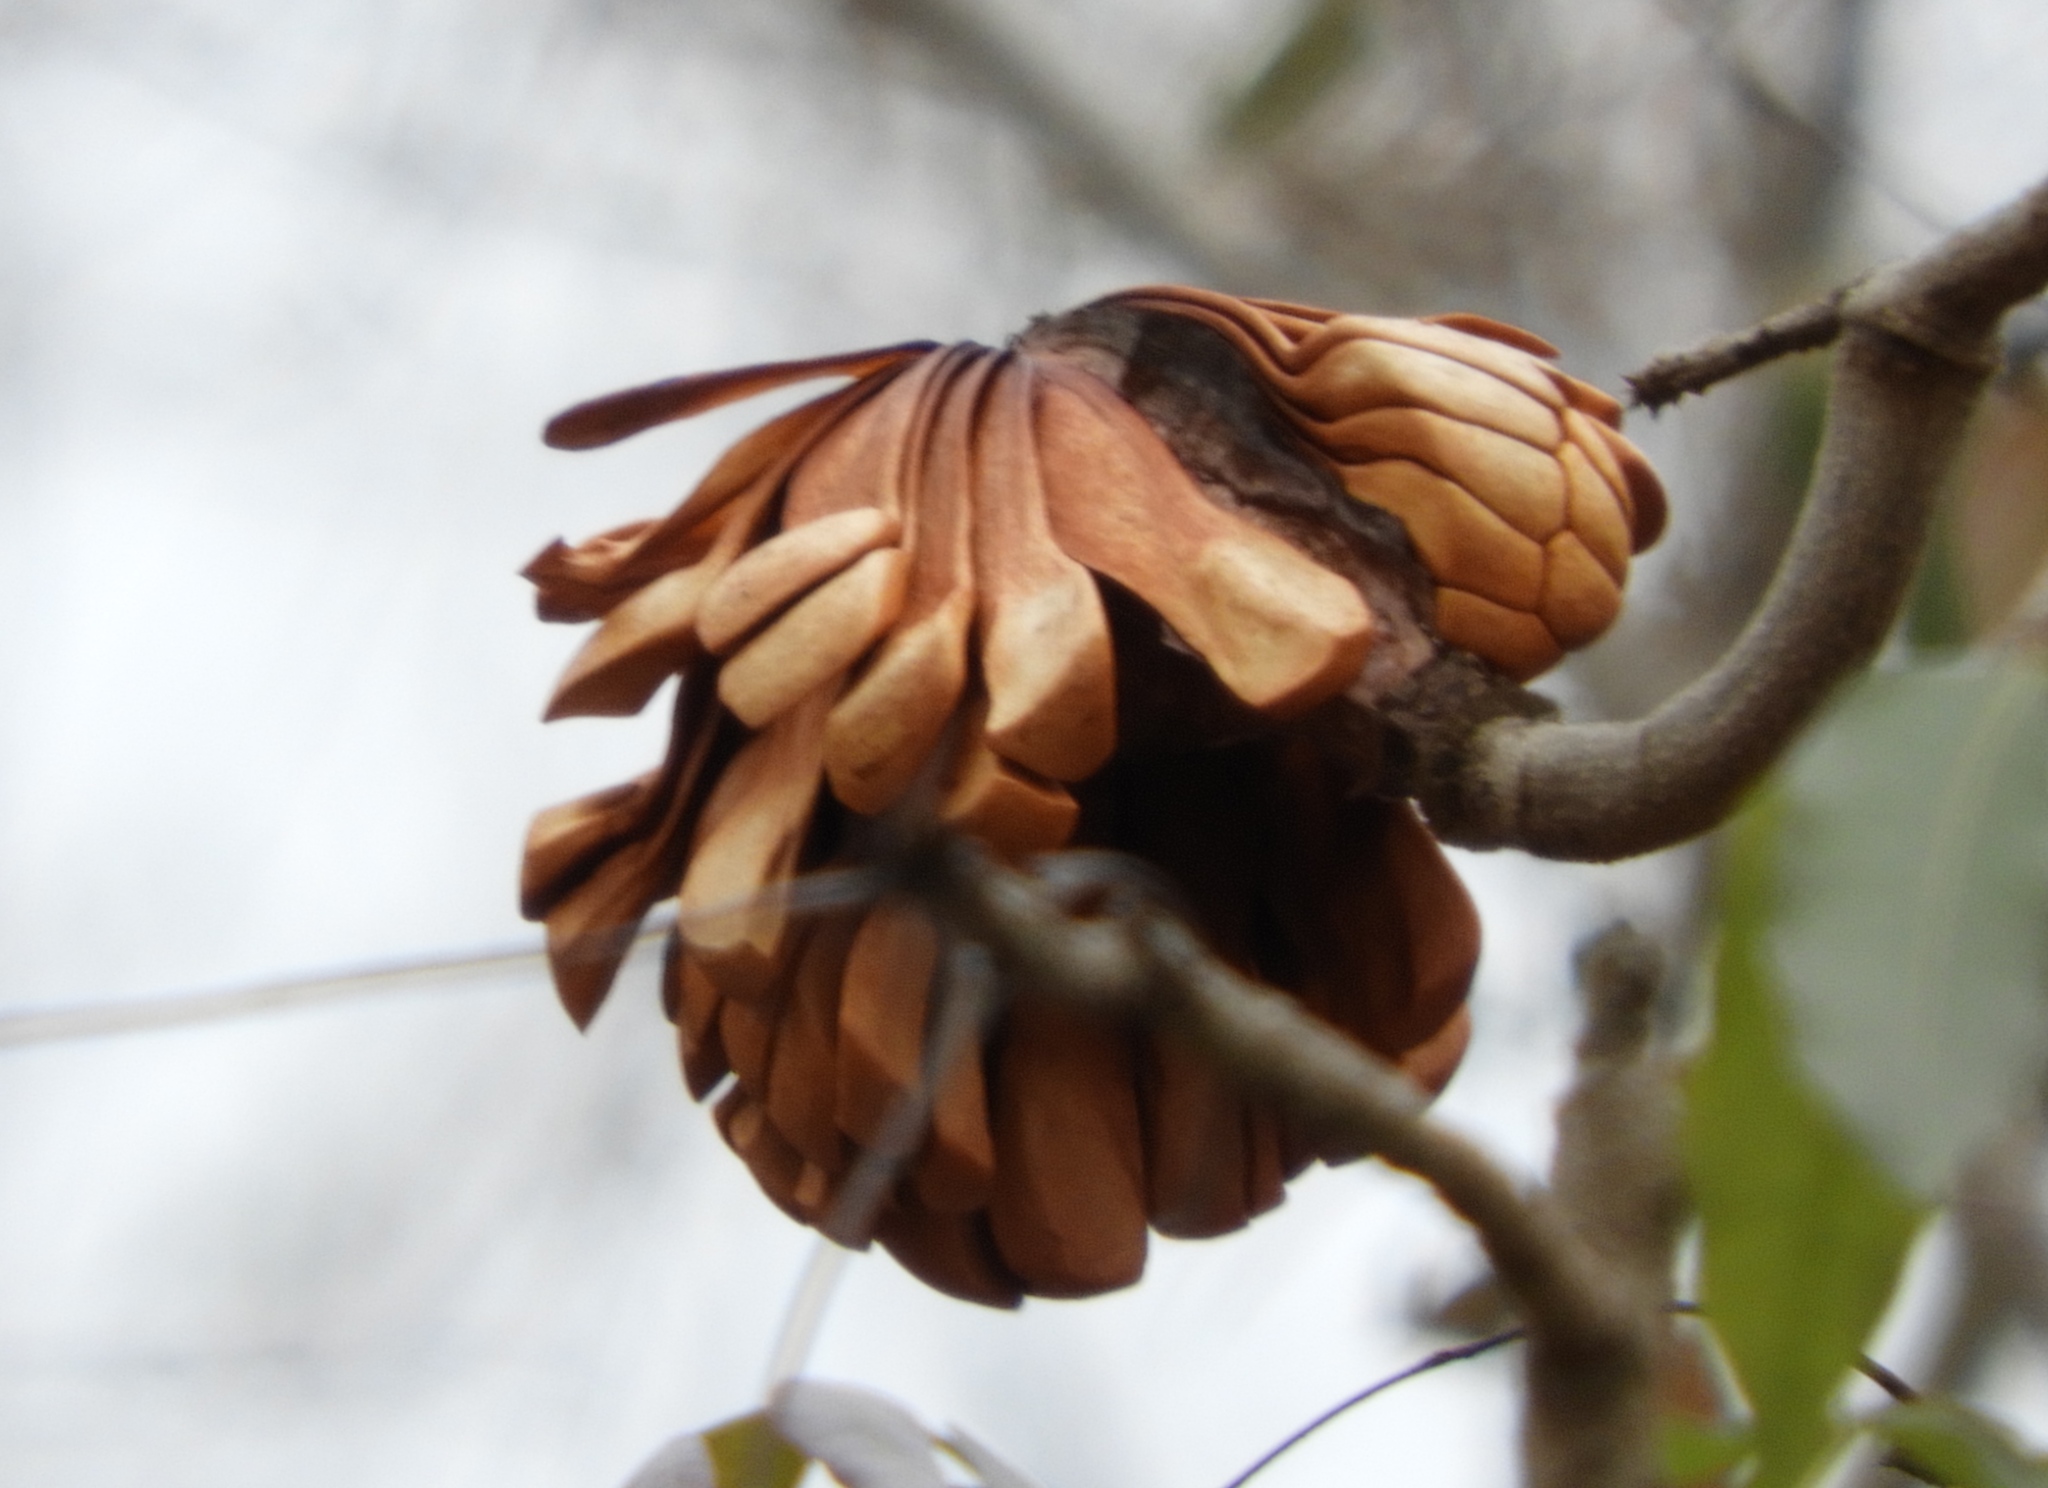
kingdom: Plantae
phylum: Tracheophyta
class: Magnoliopsida
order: Sapindales
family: Meliaceae
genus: Swietenia
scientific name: Swietenia humilis
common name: Pacific coast mahogany
